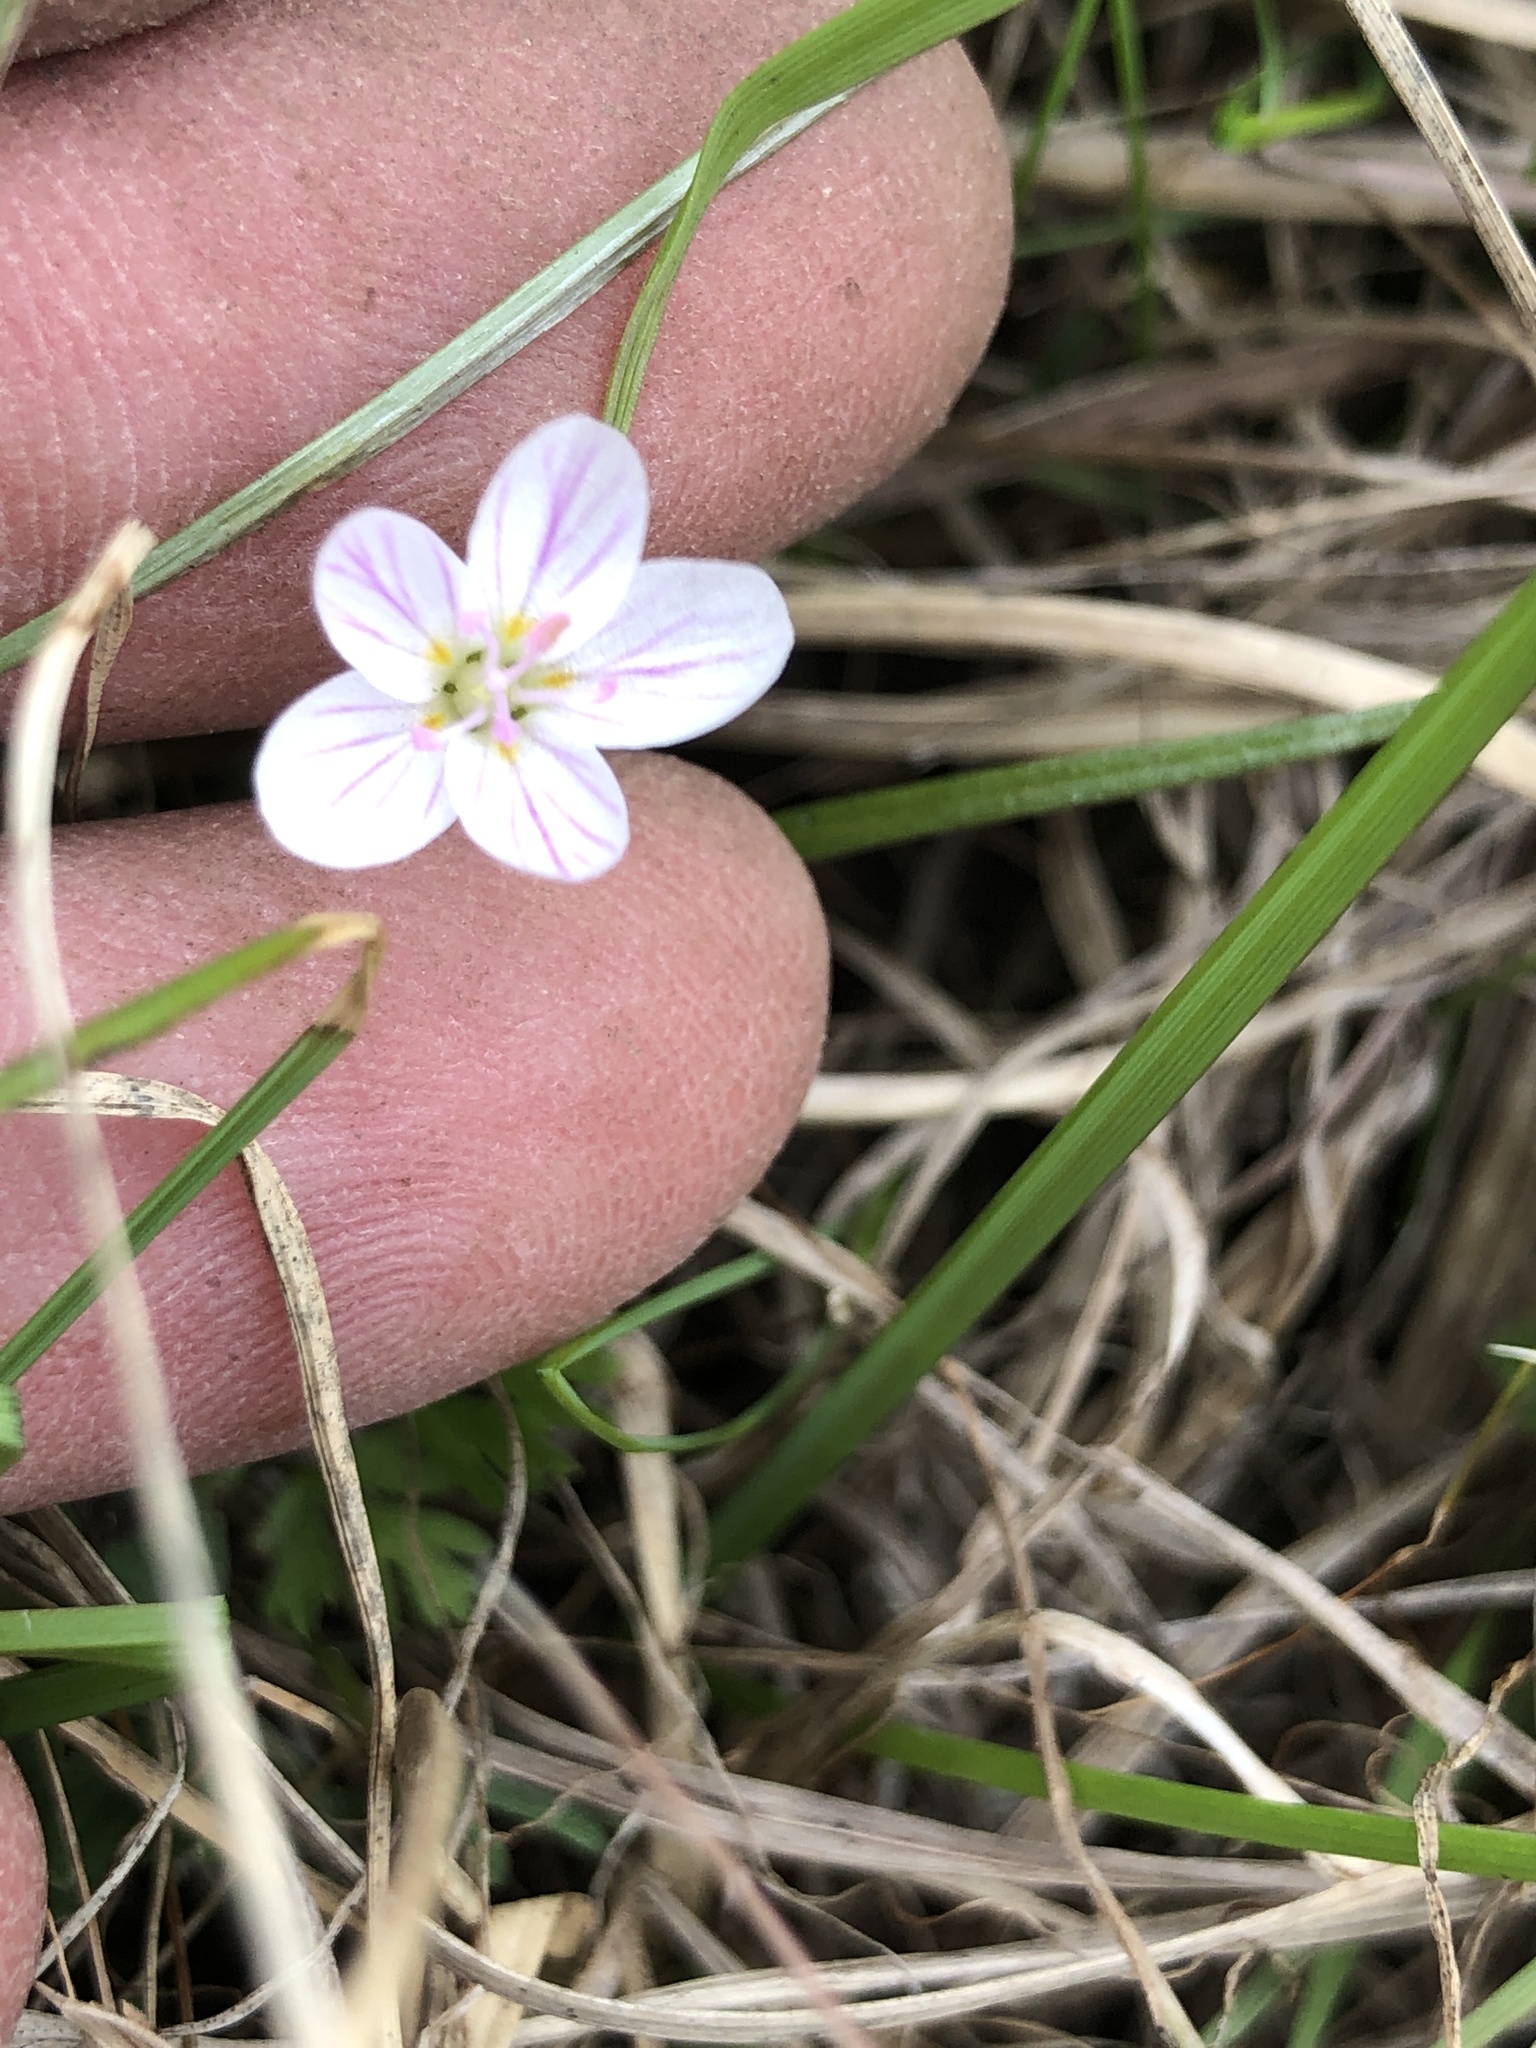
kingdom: Plantae
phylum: Tracheophyta
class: Magnoliopsida
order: Caryophyllales
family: Montiaceae
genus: Claytonia
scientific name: Claytonia virginica
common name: Virginia springbeauty
